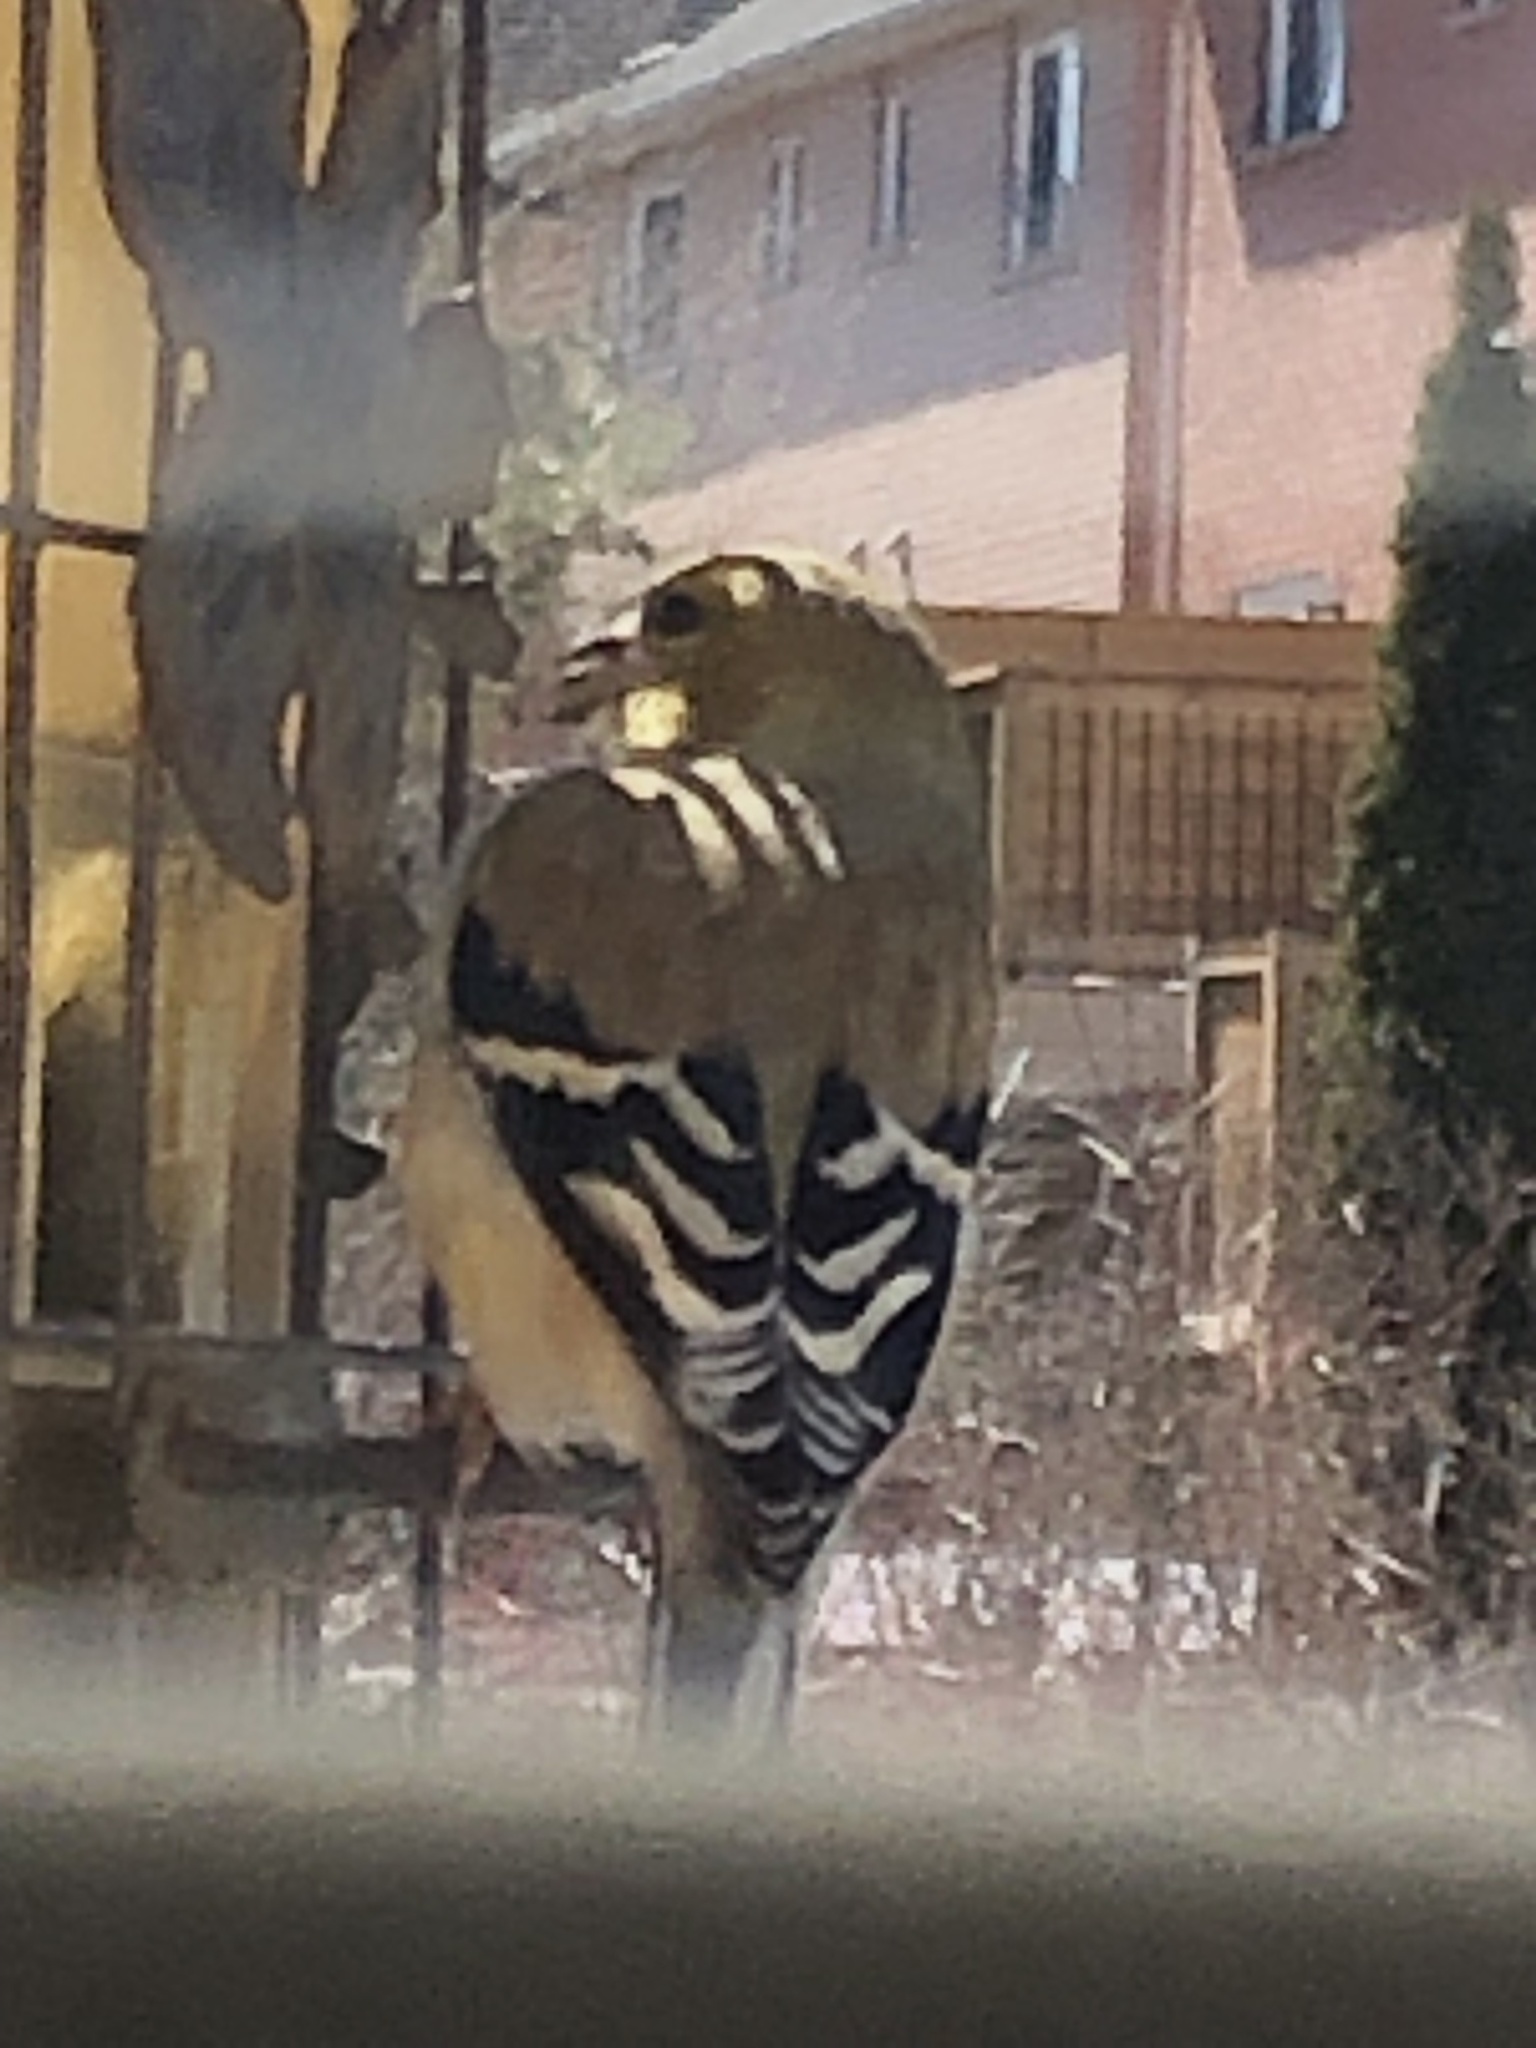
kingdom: Animalia
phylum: Chordata
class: Aves
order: Passeriformes
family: Fringillidae
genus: Spinus
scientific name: Spinus tristis
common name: American goldfinch
